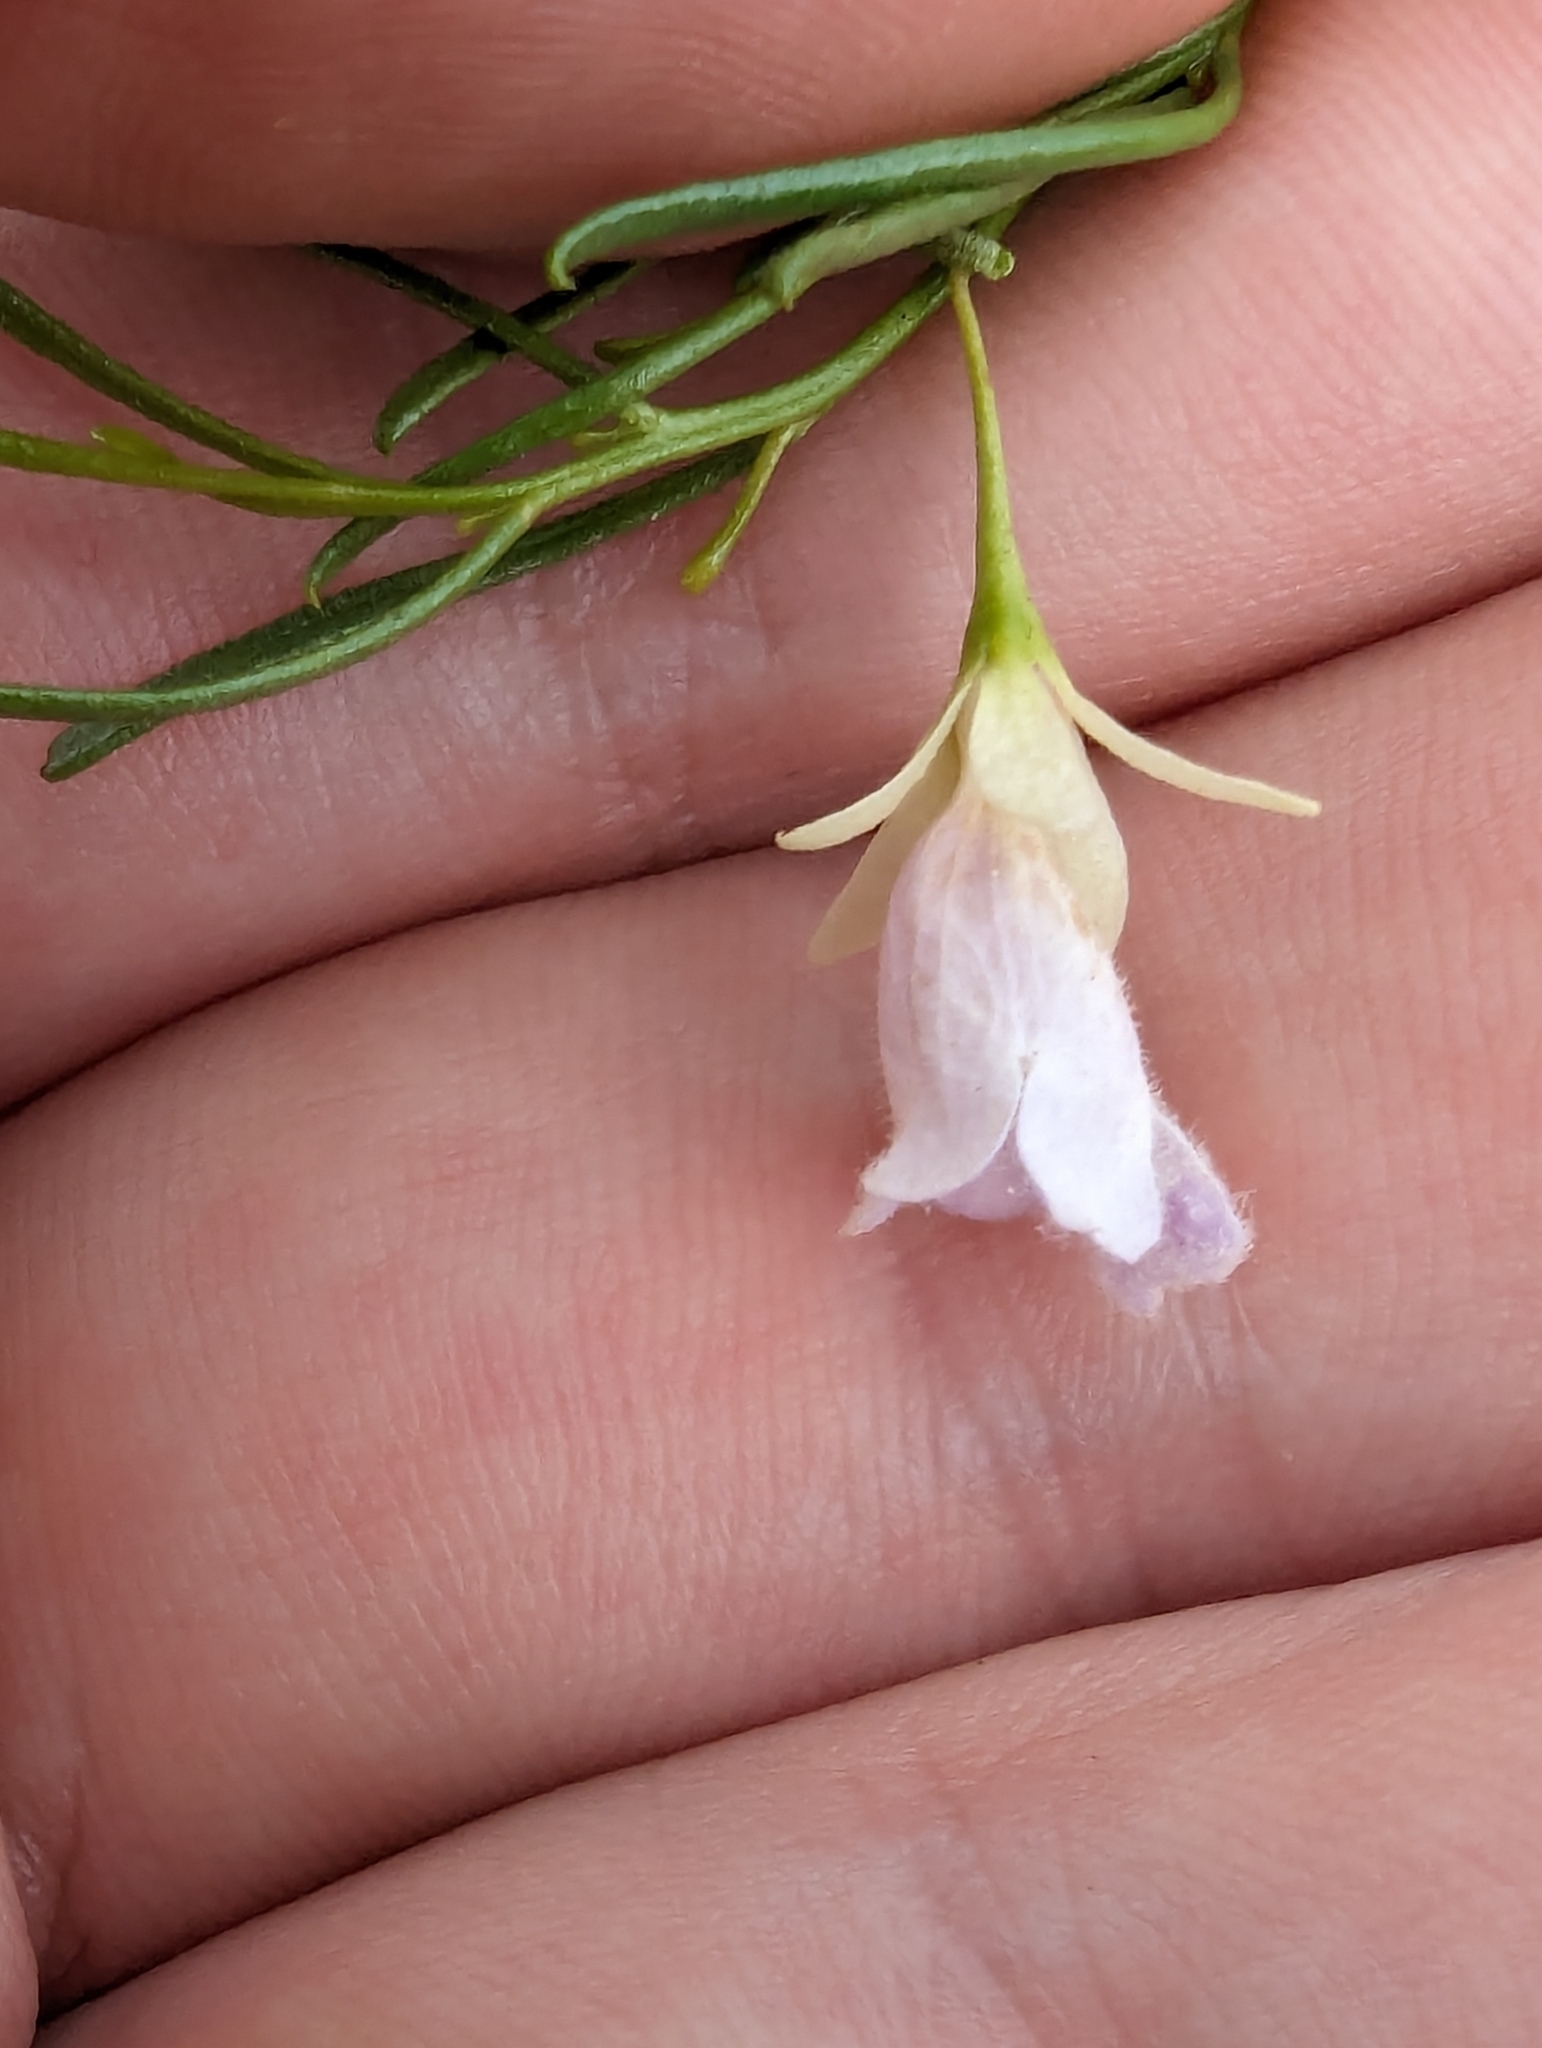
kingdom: Plantae
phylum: Tracheophyta
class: Magnoliopsida
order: Lamiales
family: Scrophulariaceae
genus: Eremophila
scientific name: Eremophila sturtii
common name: Narrow-leaf emubush
